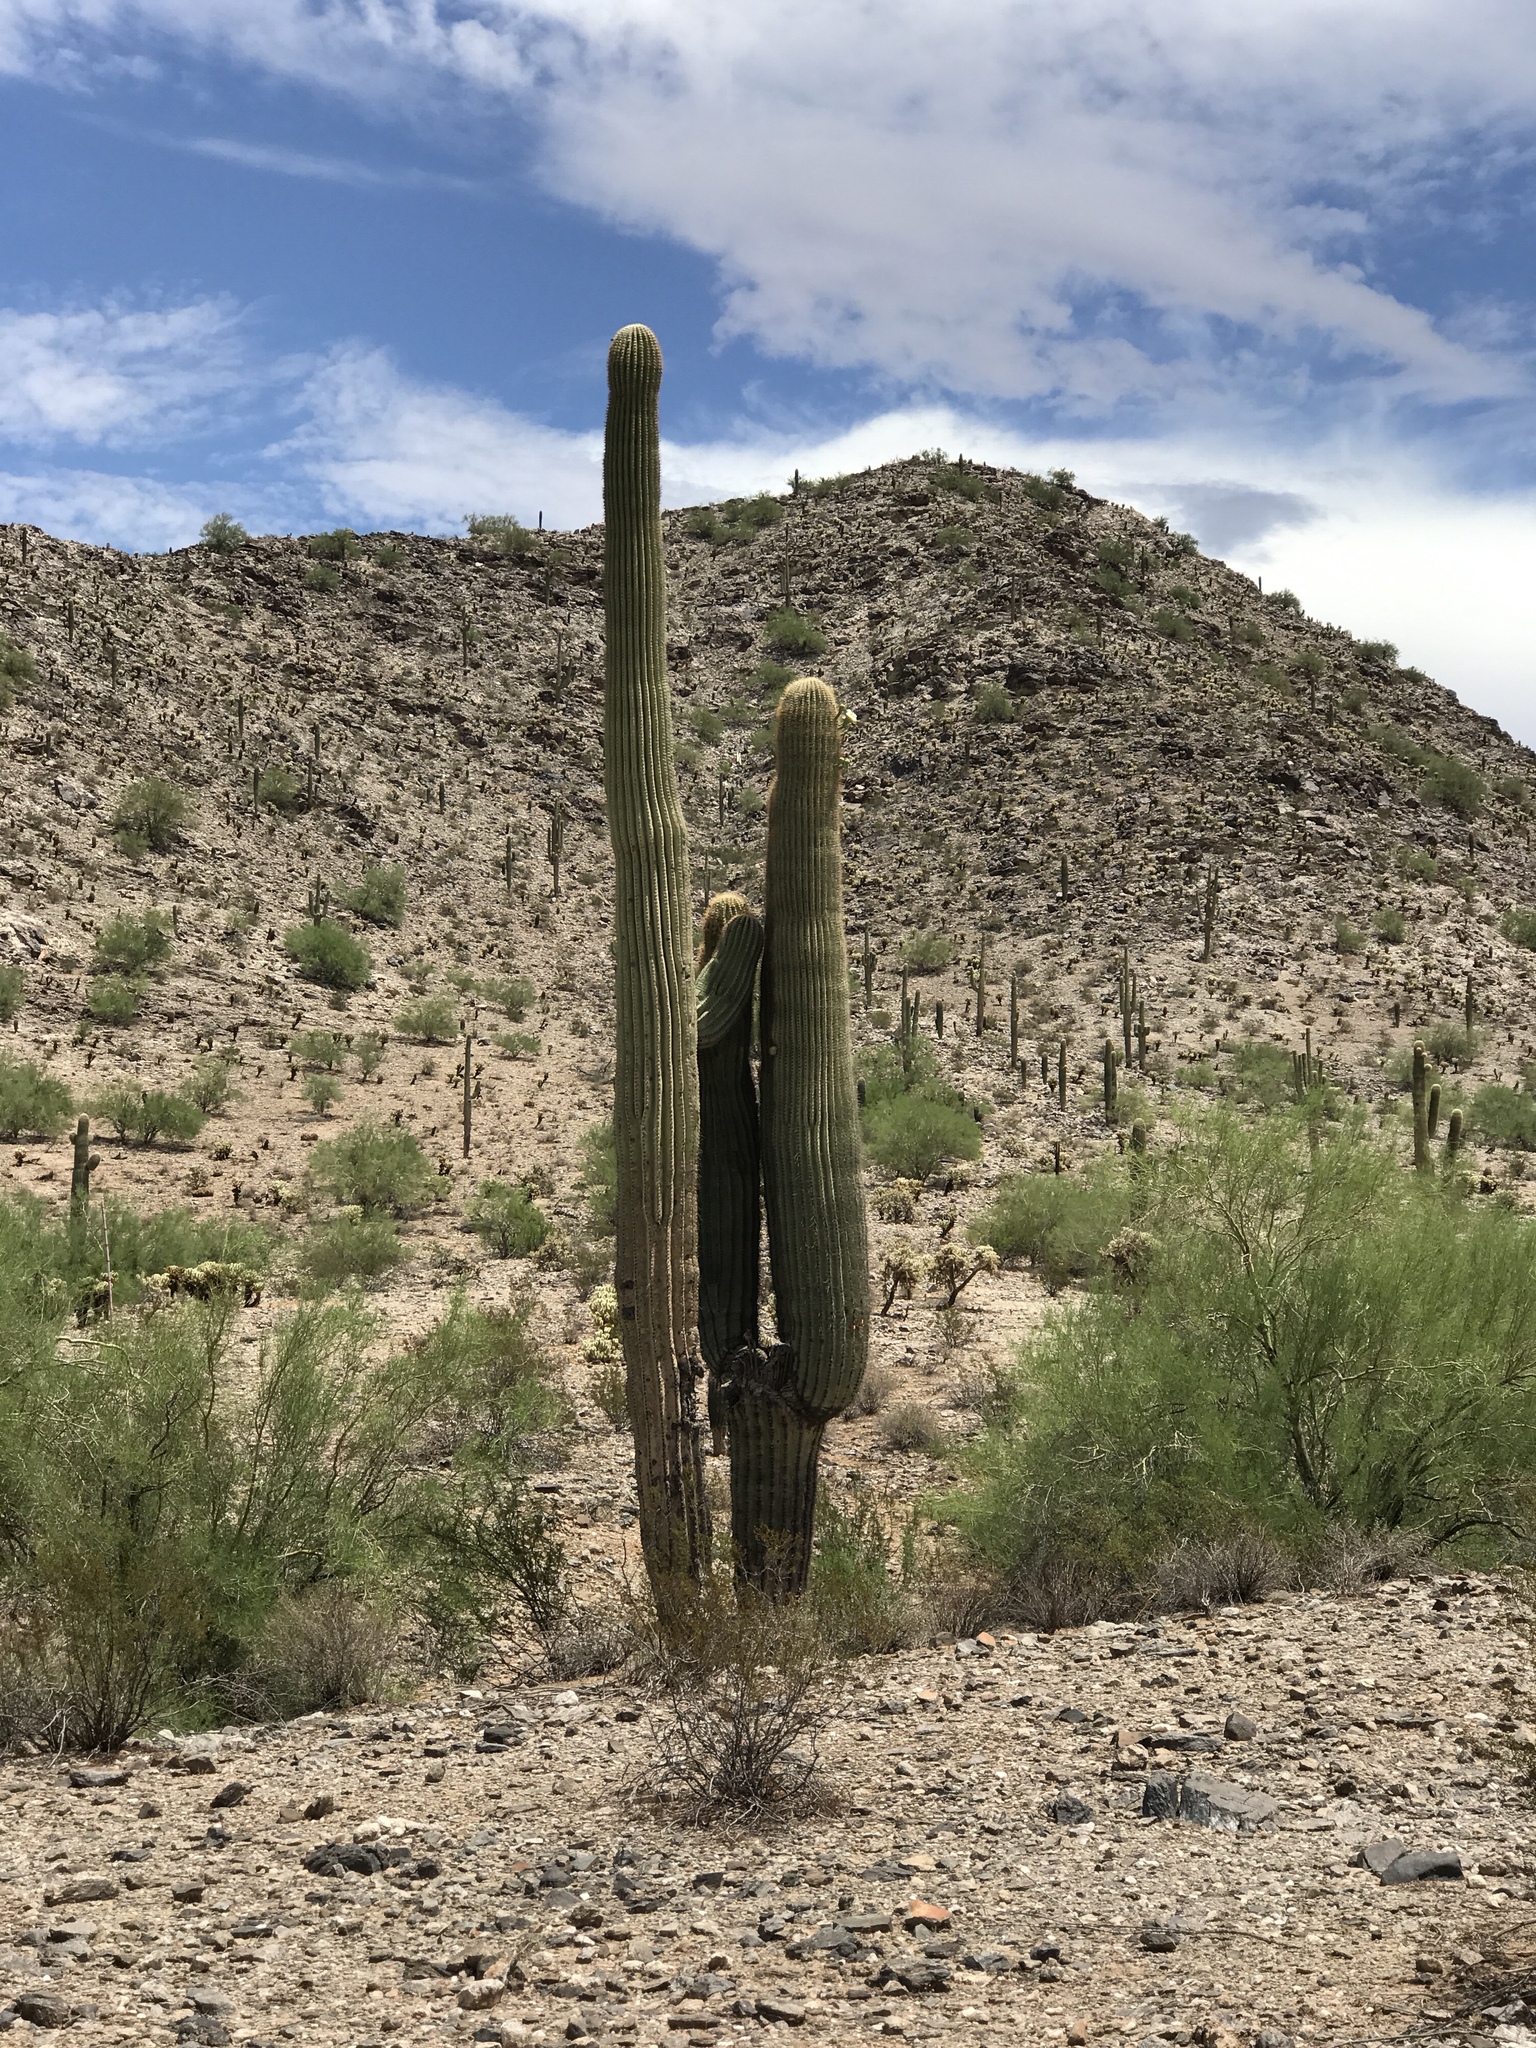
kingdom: Plantae
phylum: Tracheophyta
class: Magnoliopsida
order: Caryophyllales
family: Cactaceae
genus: Carnegiea
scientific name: Carnegiea gigantea
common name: Saguaro
